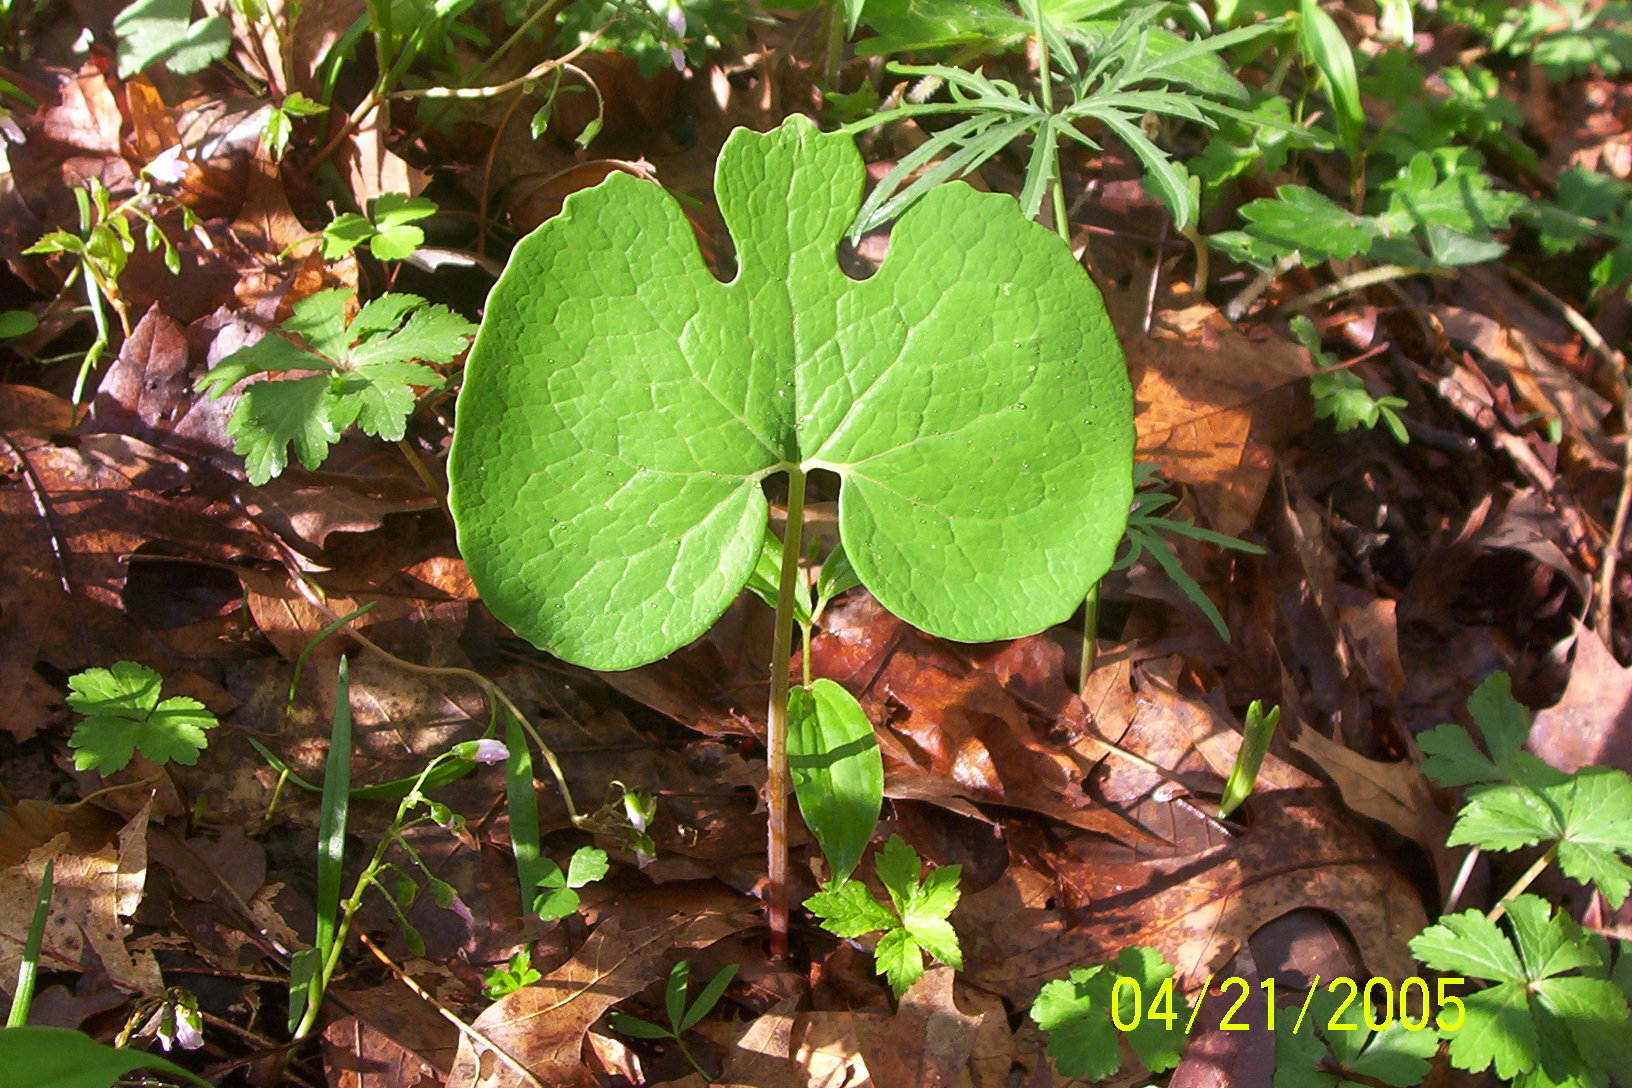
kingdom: Plantae
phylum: Tracheophyta
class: Magnoliopsida
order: Ranunculales
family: Papaveraceae
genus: Sanguinaria
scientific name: Sanguinaria canadensis
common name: Bloodroot
